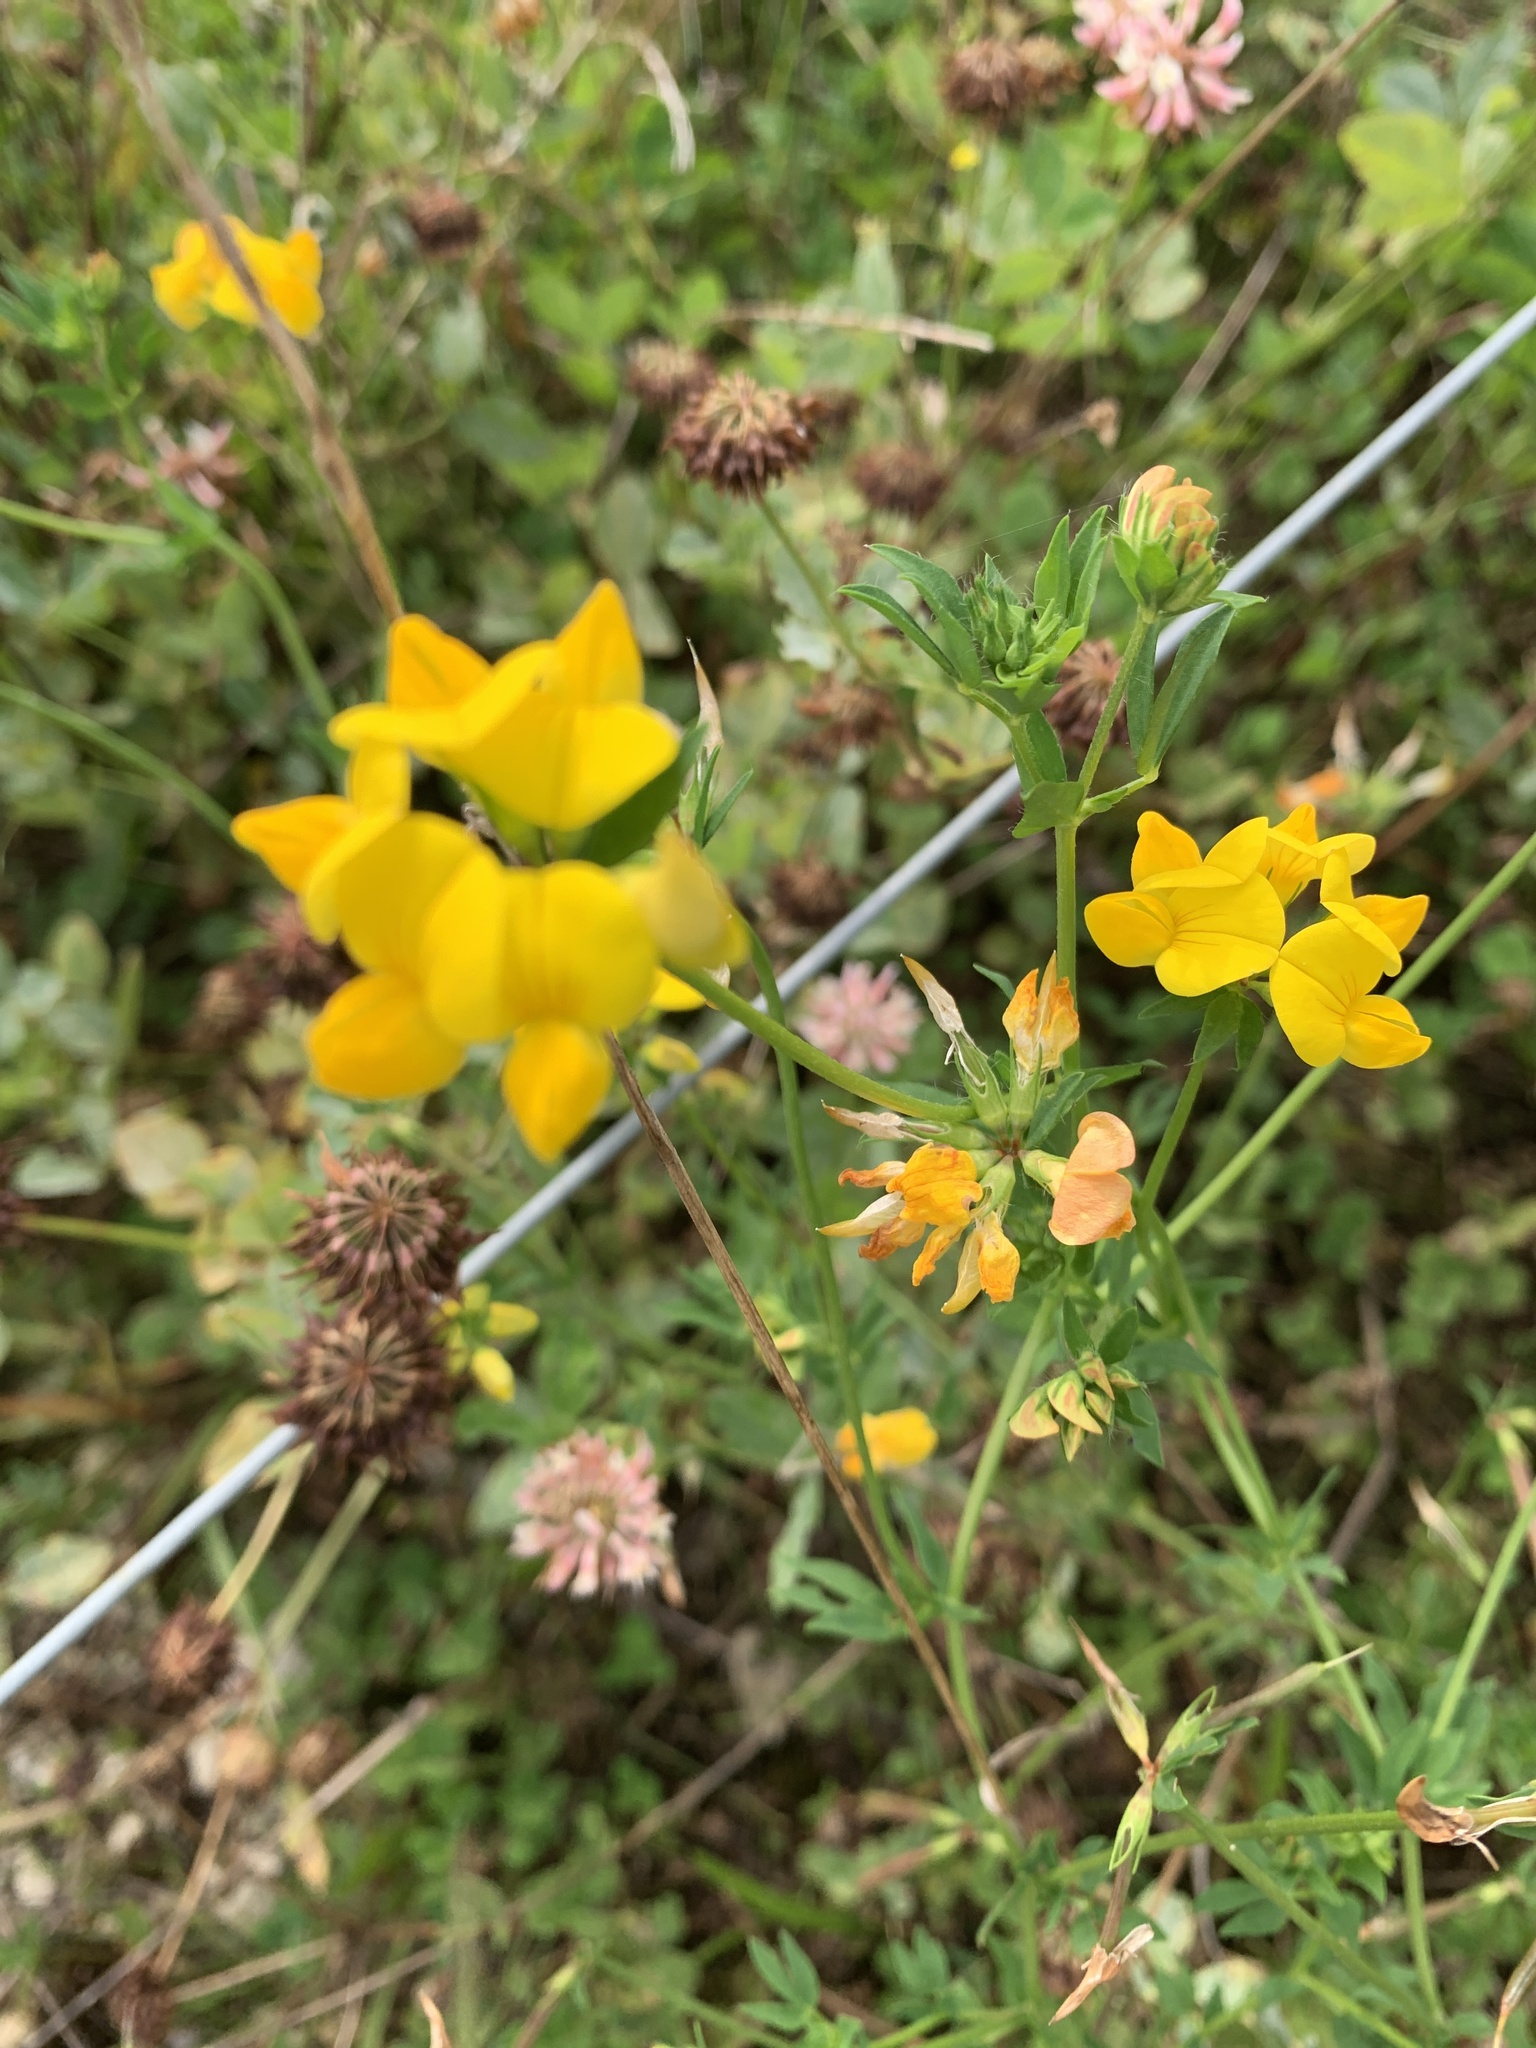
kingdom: Plantae
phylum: Tracheophyta
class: Magnoliopsida
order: Fabales
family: Fabaceae
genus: Lotus
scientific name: Lotus corniculatus
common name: Common bird's-foot-trefoil
